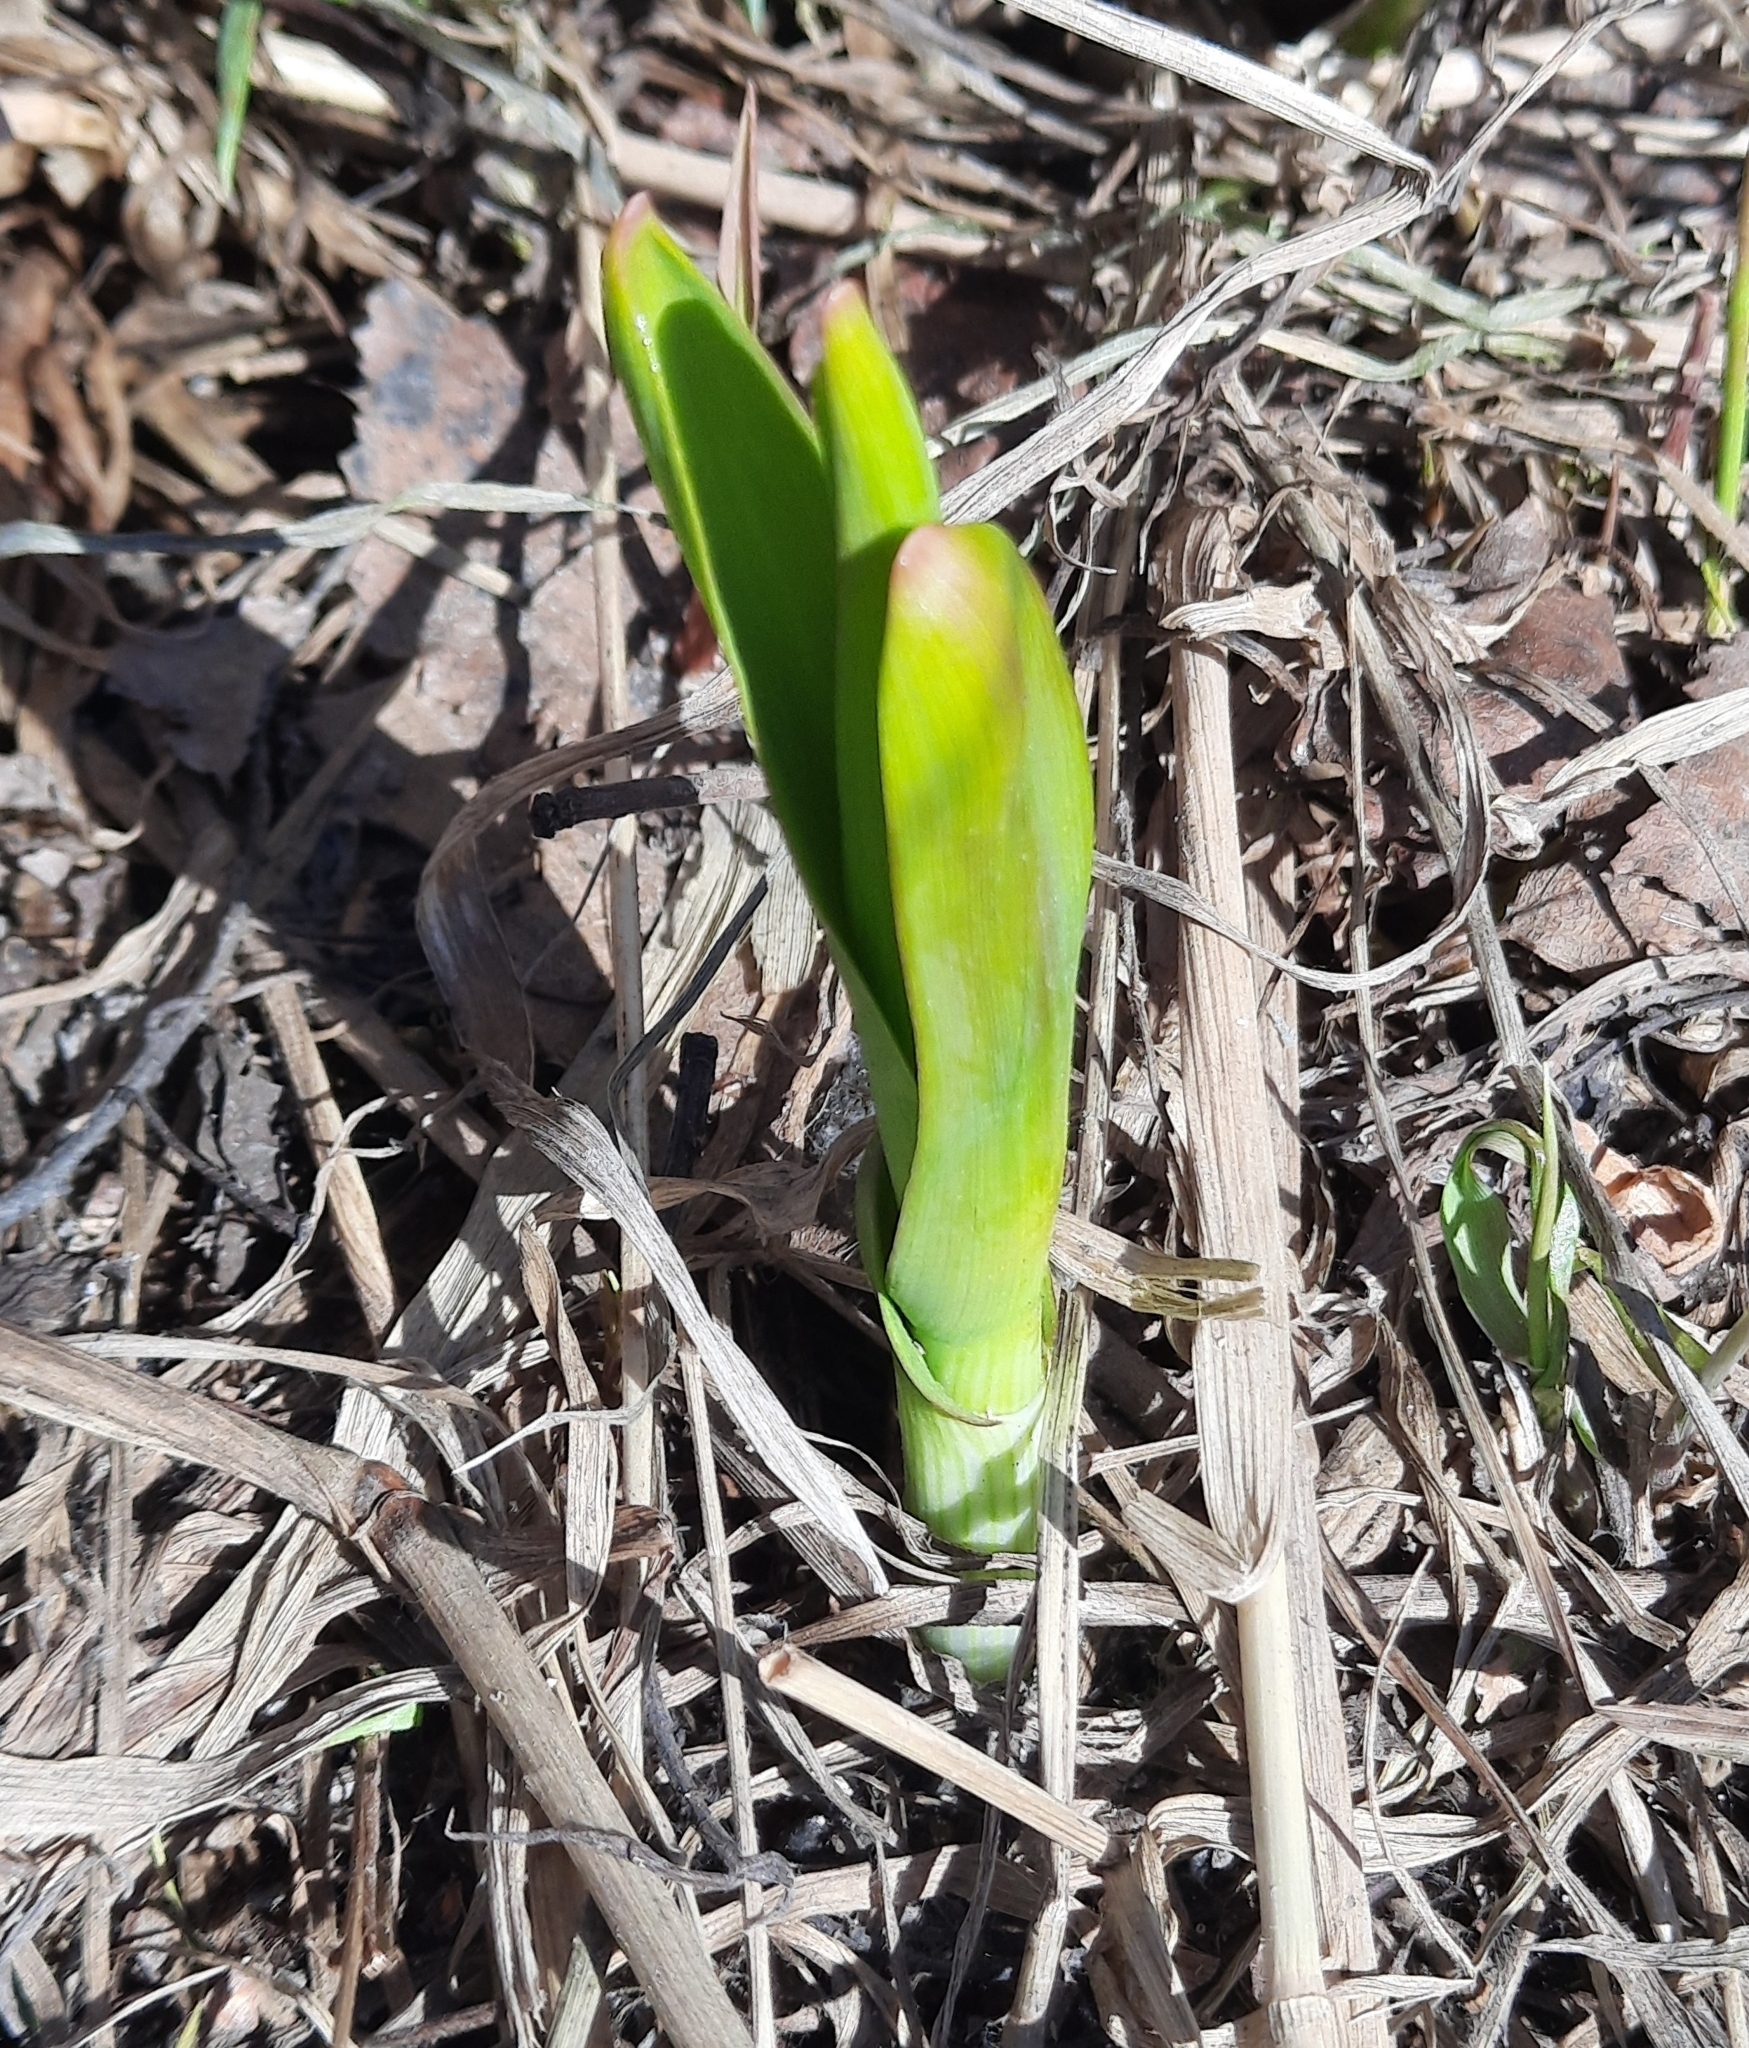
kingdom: Plantae
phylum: Tracheophyta
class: Liliopsida
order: Asparagales
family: Amaryllidaceae
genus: Allium
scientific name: Allium obliquum
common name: Oblique onion
